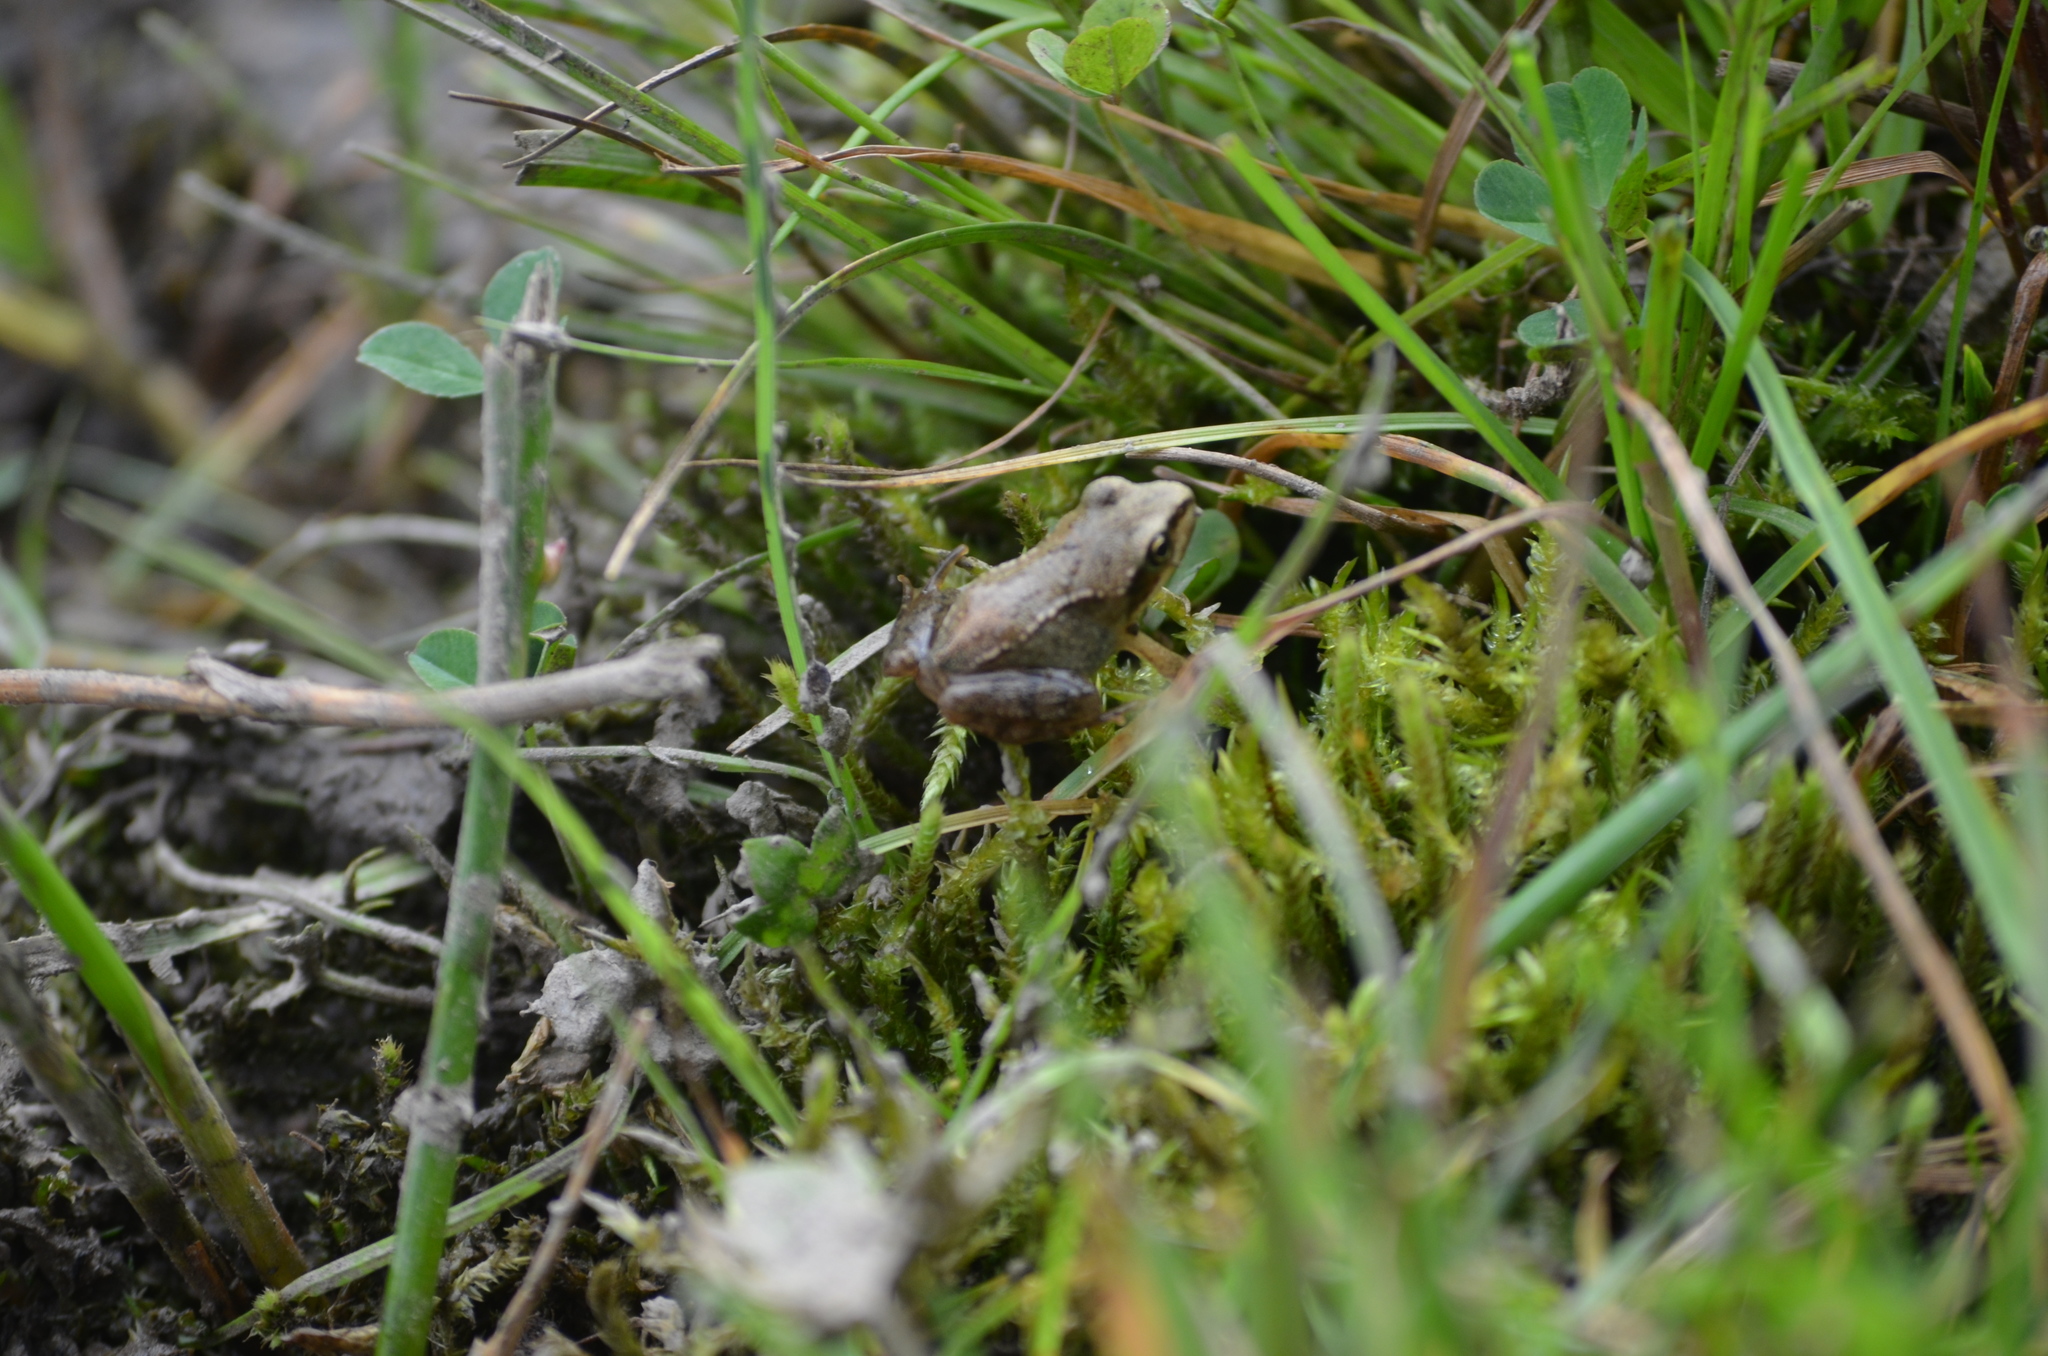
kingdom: Animalia
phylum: Chordata
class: Amphibia
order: Anura
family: Ranidae
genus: Pelophylax
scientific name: Pelophylax perezi
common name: Perez's frog
